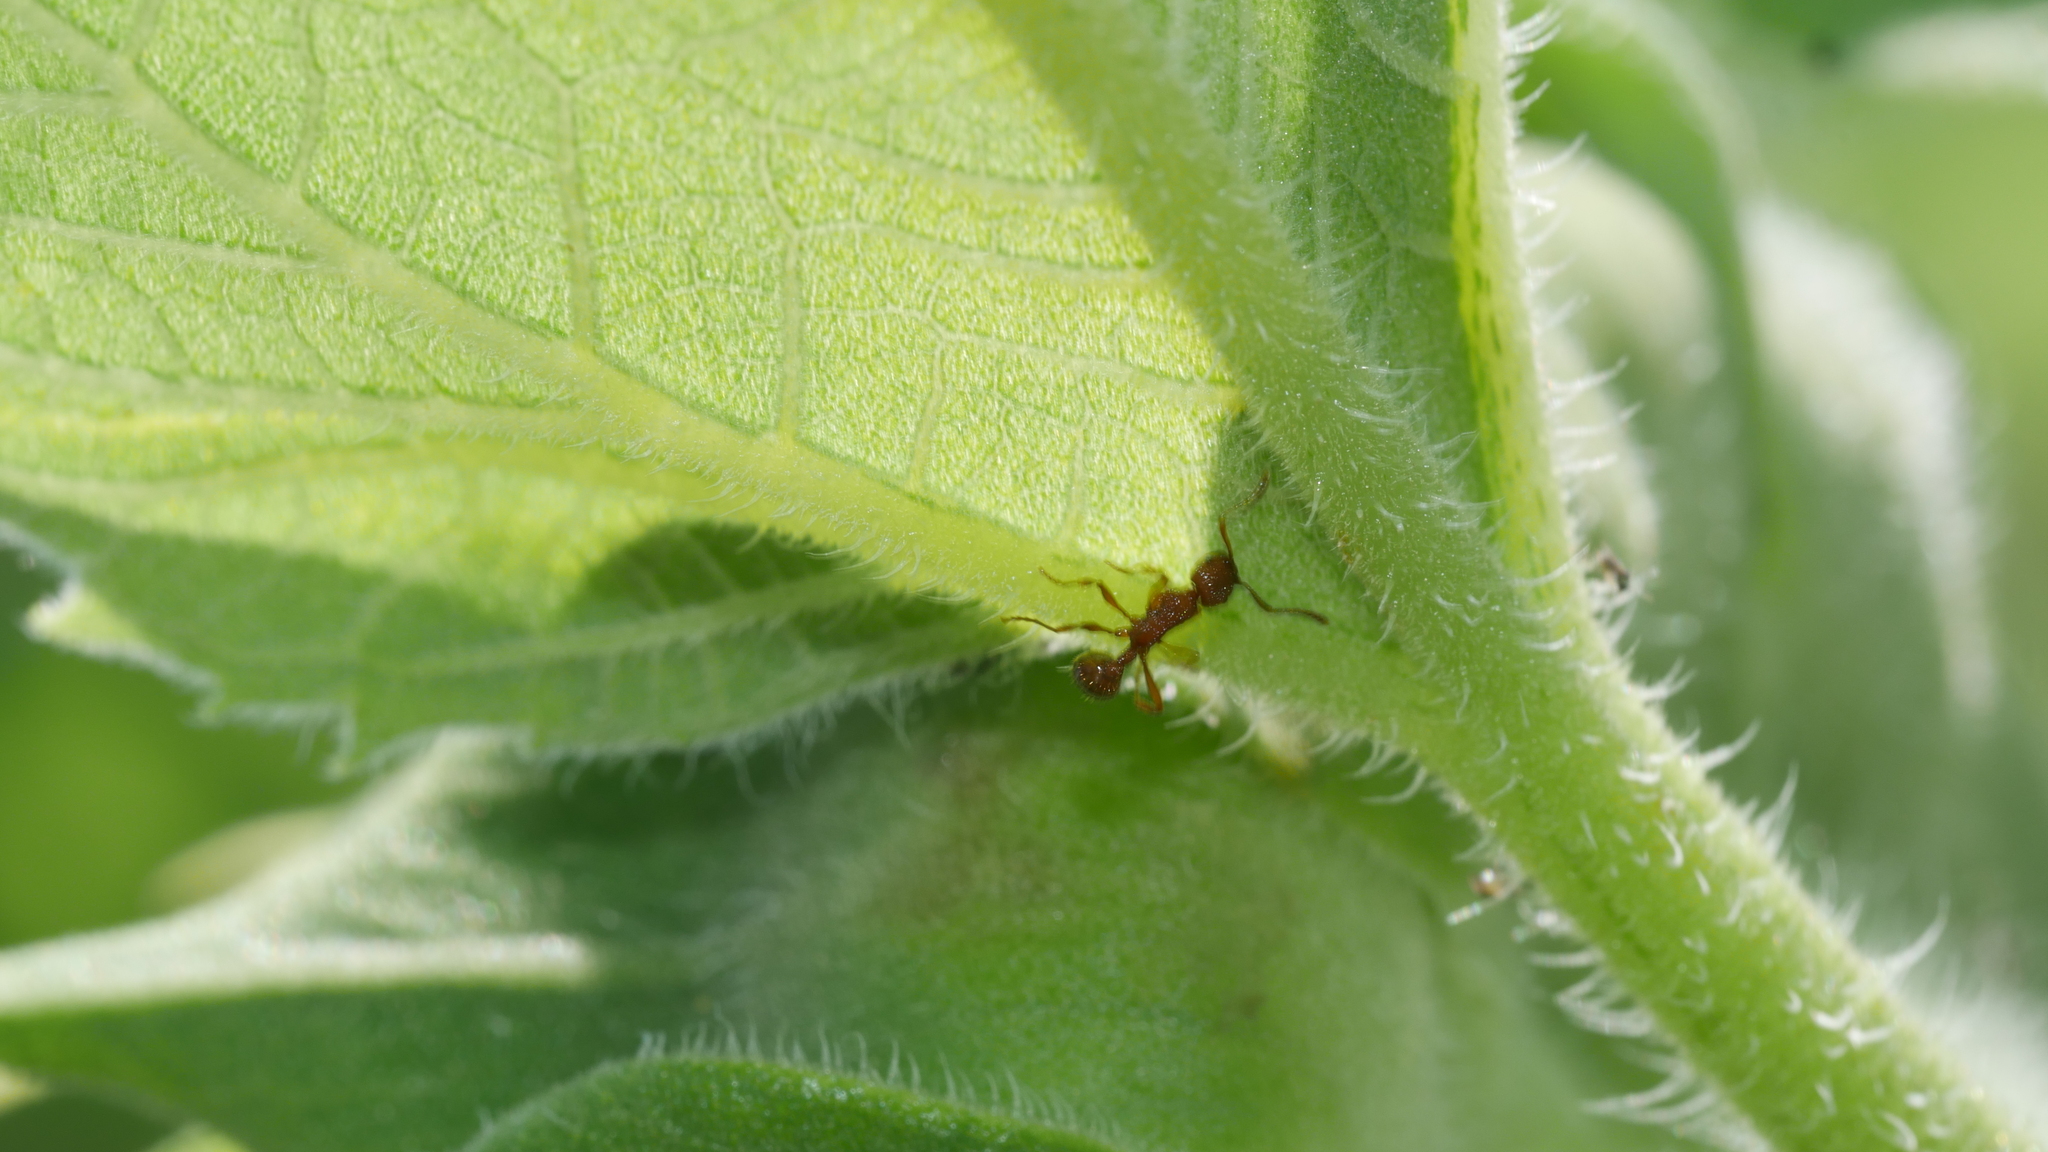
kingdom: Animalia
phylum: Arthropoda
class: Insecta
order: Hymenoptera
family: Formicidae
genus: Myrmica
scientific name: Myrmica
